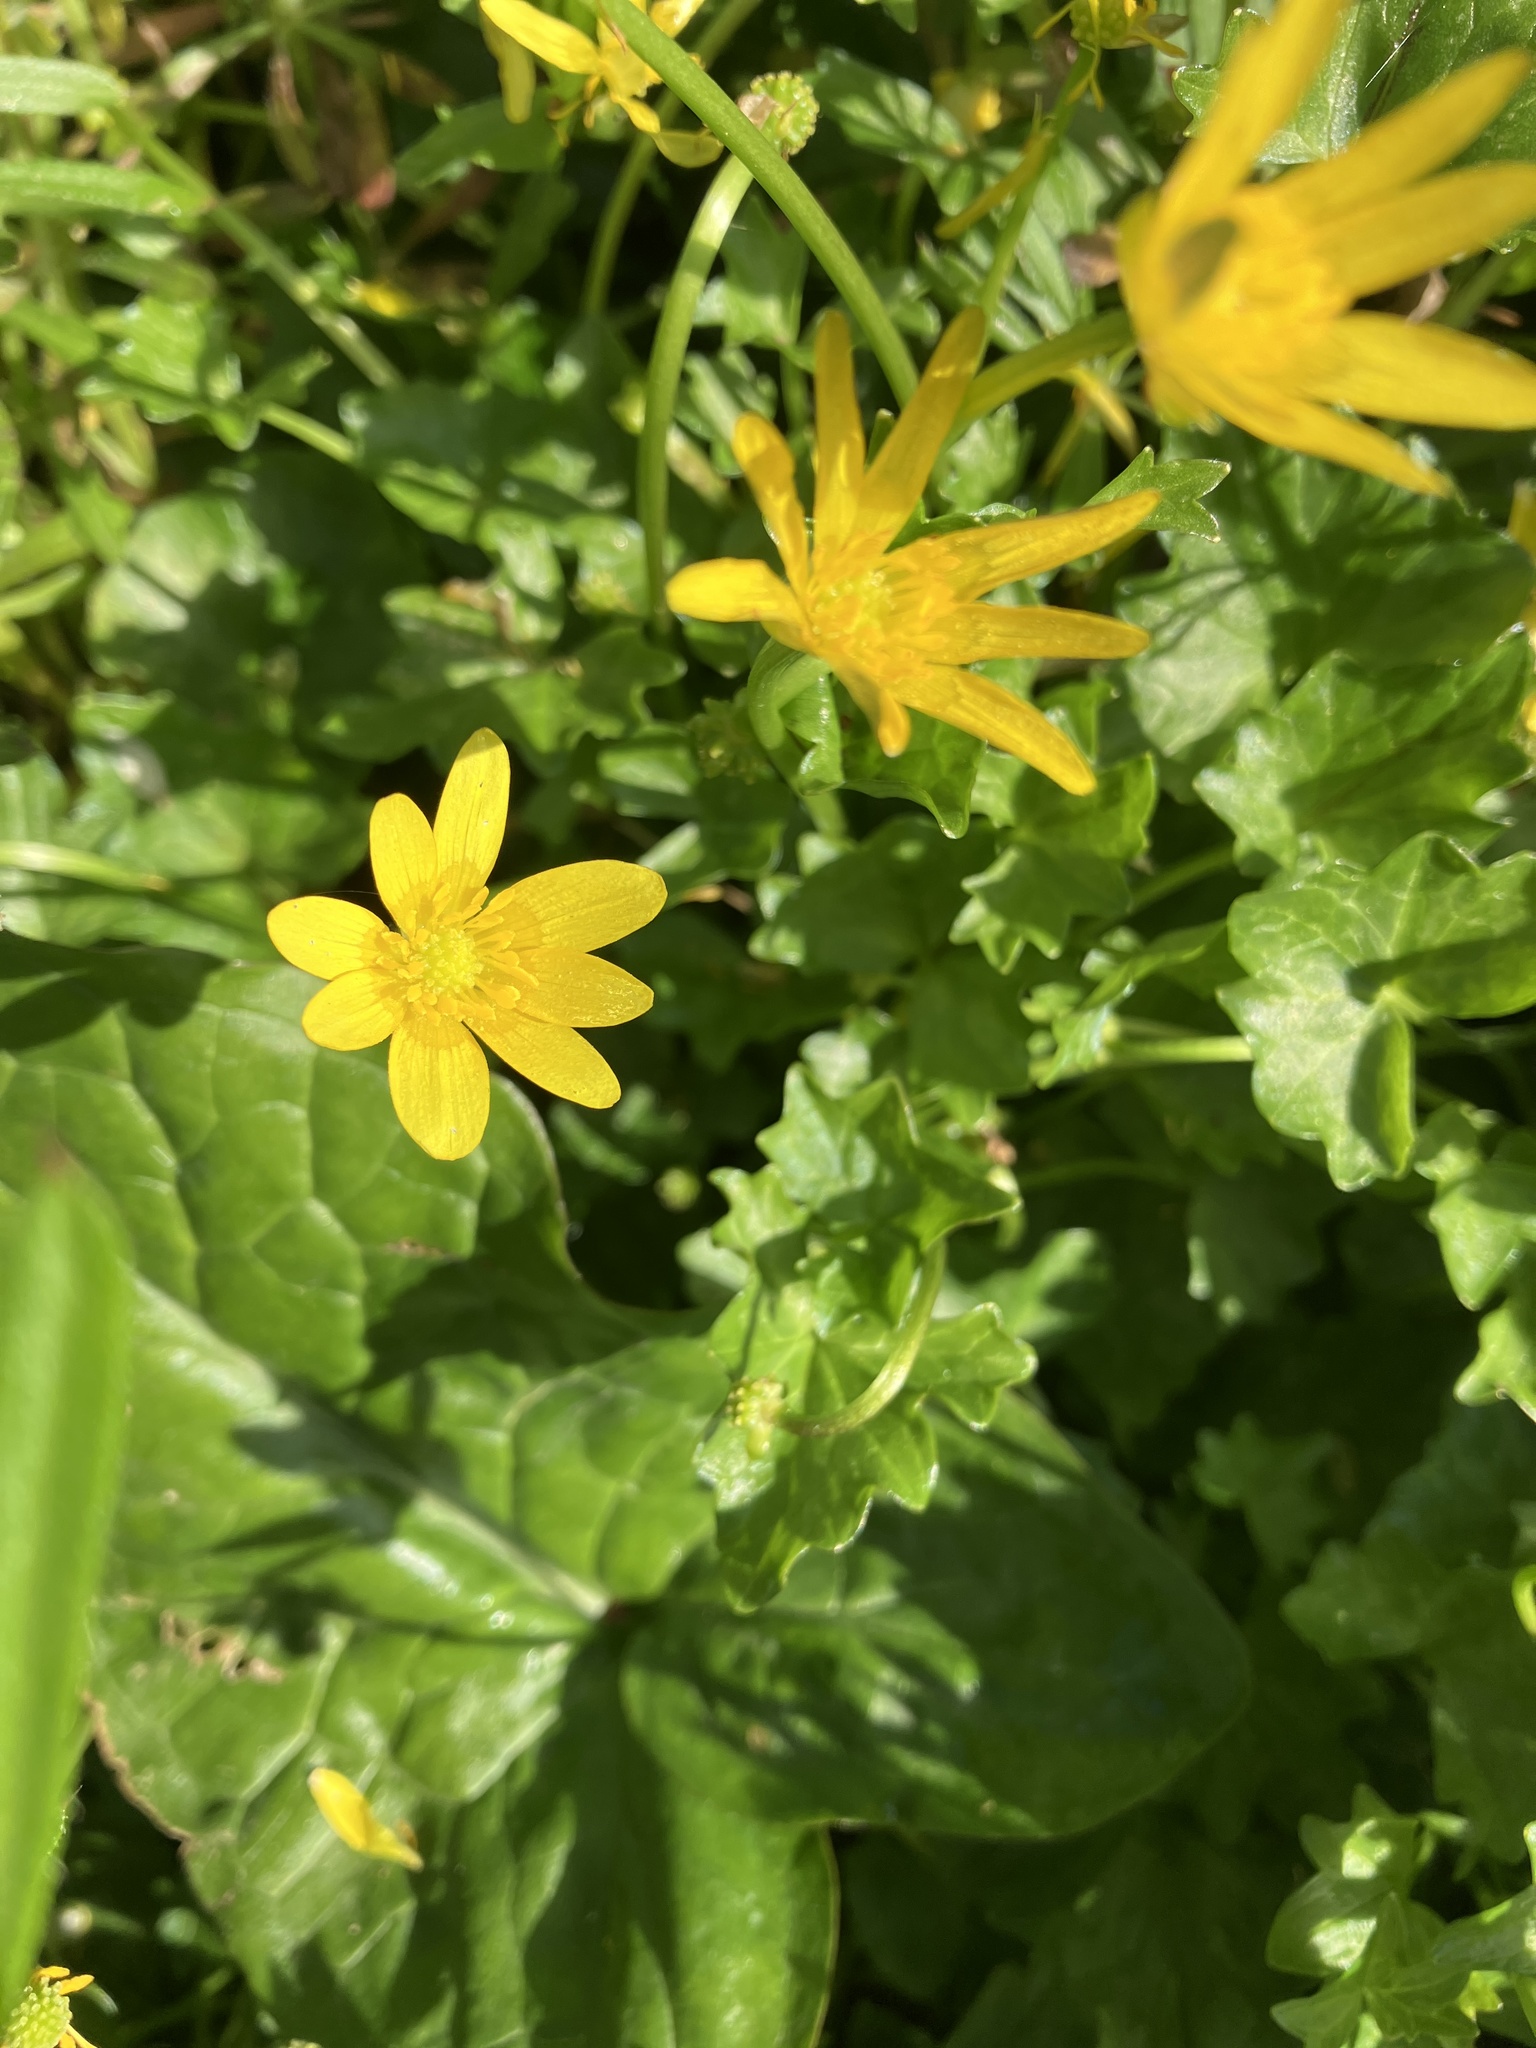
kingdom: Plantae
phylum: Tracheophyta
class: Magnoliopsida
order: Ranunculales
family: Ranunculaceae
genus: Ficaria
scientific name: Ficaria verna
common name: Lesser celandine
